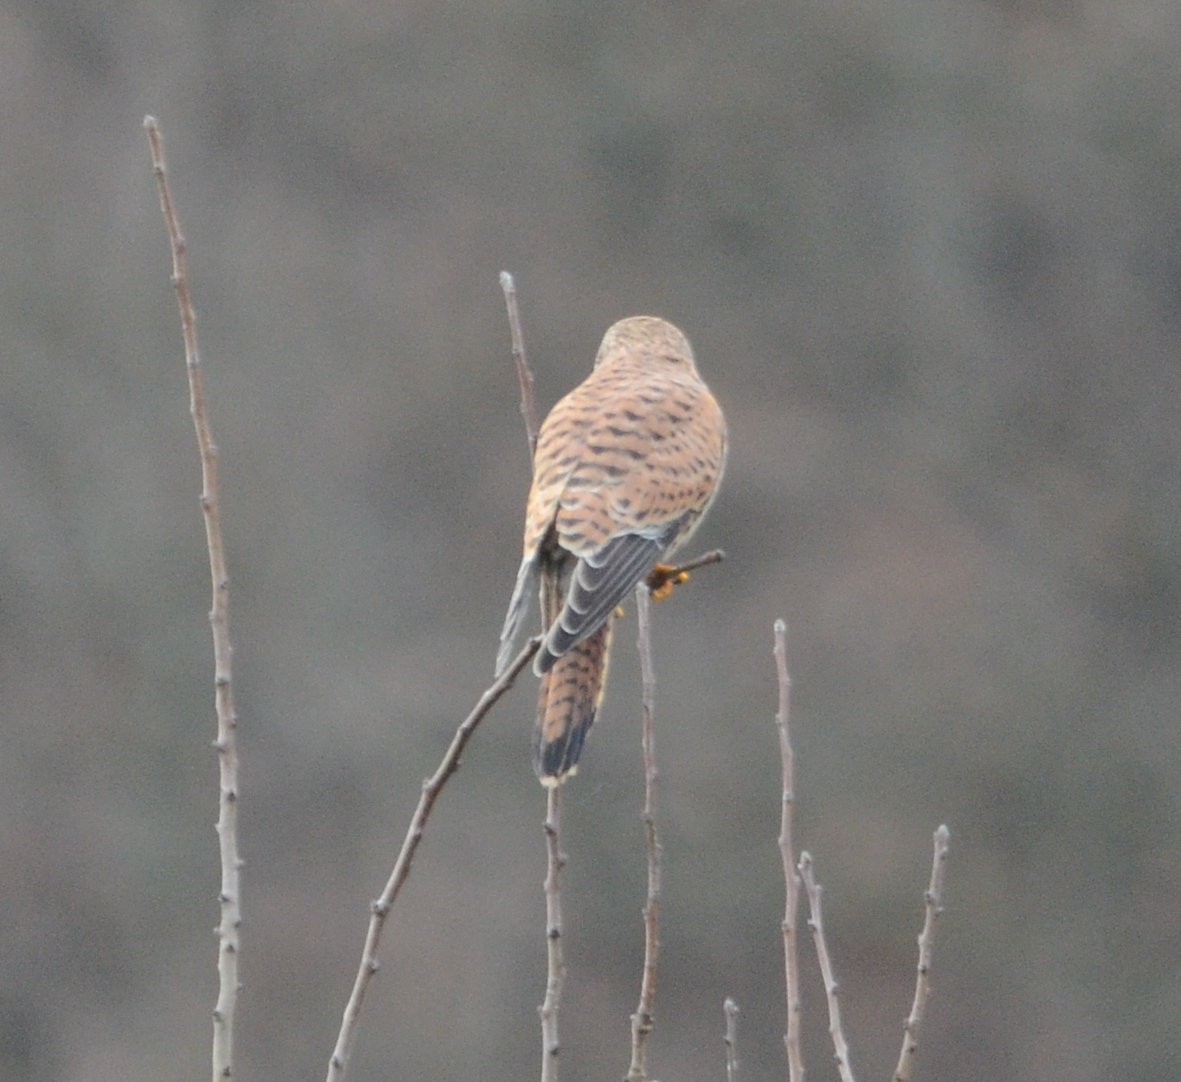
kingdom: Animalia
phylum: Chordata
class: Aves
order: Falconiformes
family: Falconidae
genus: Falco
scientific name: Falco tinnunculus
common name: Common kestrel
